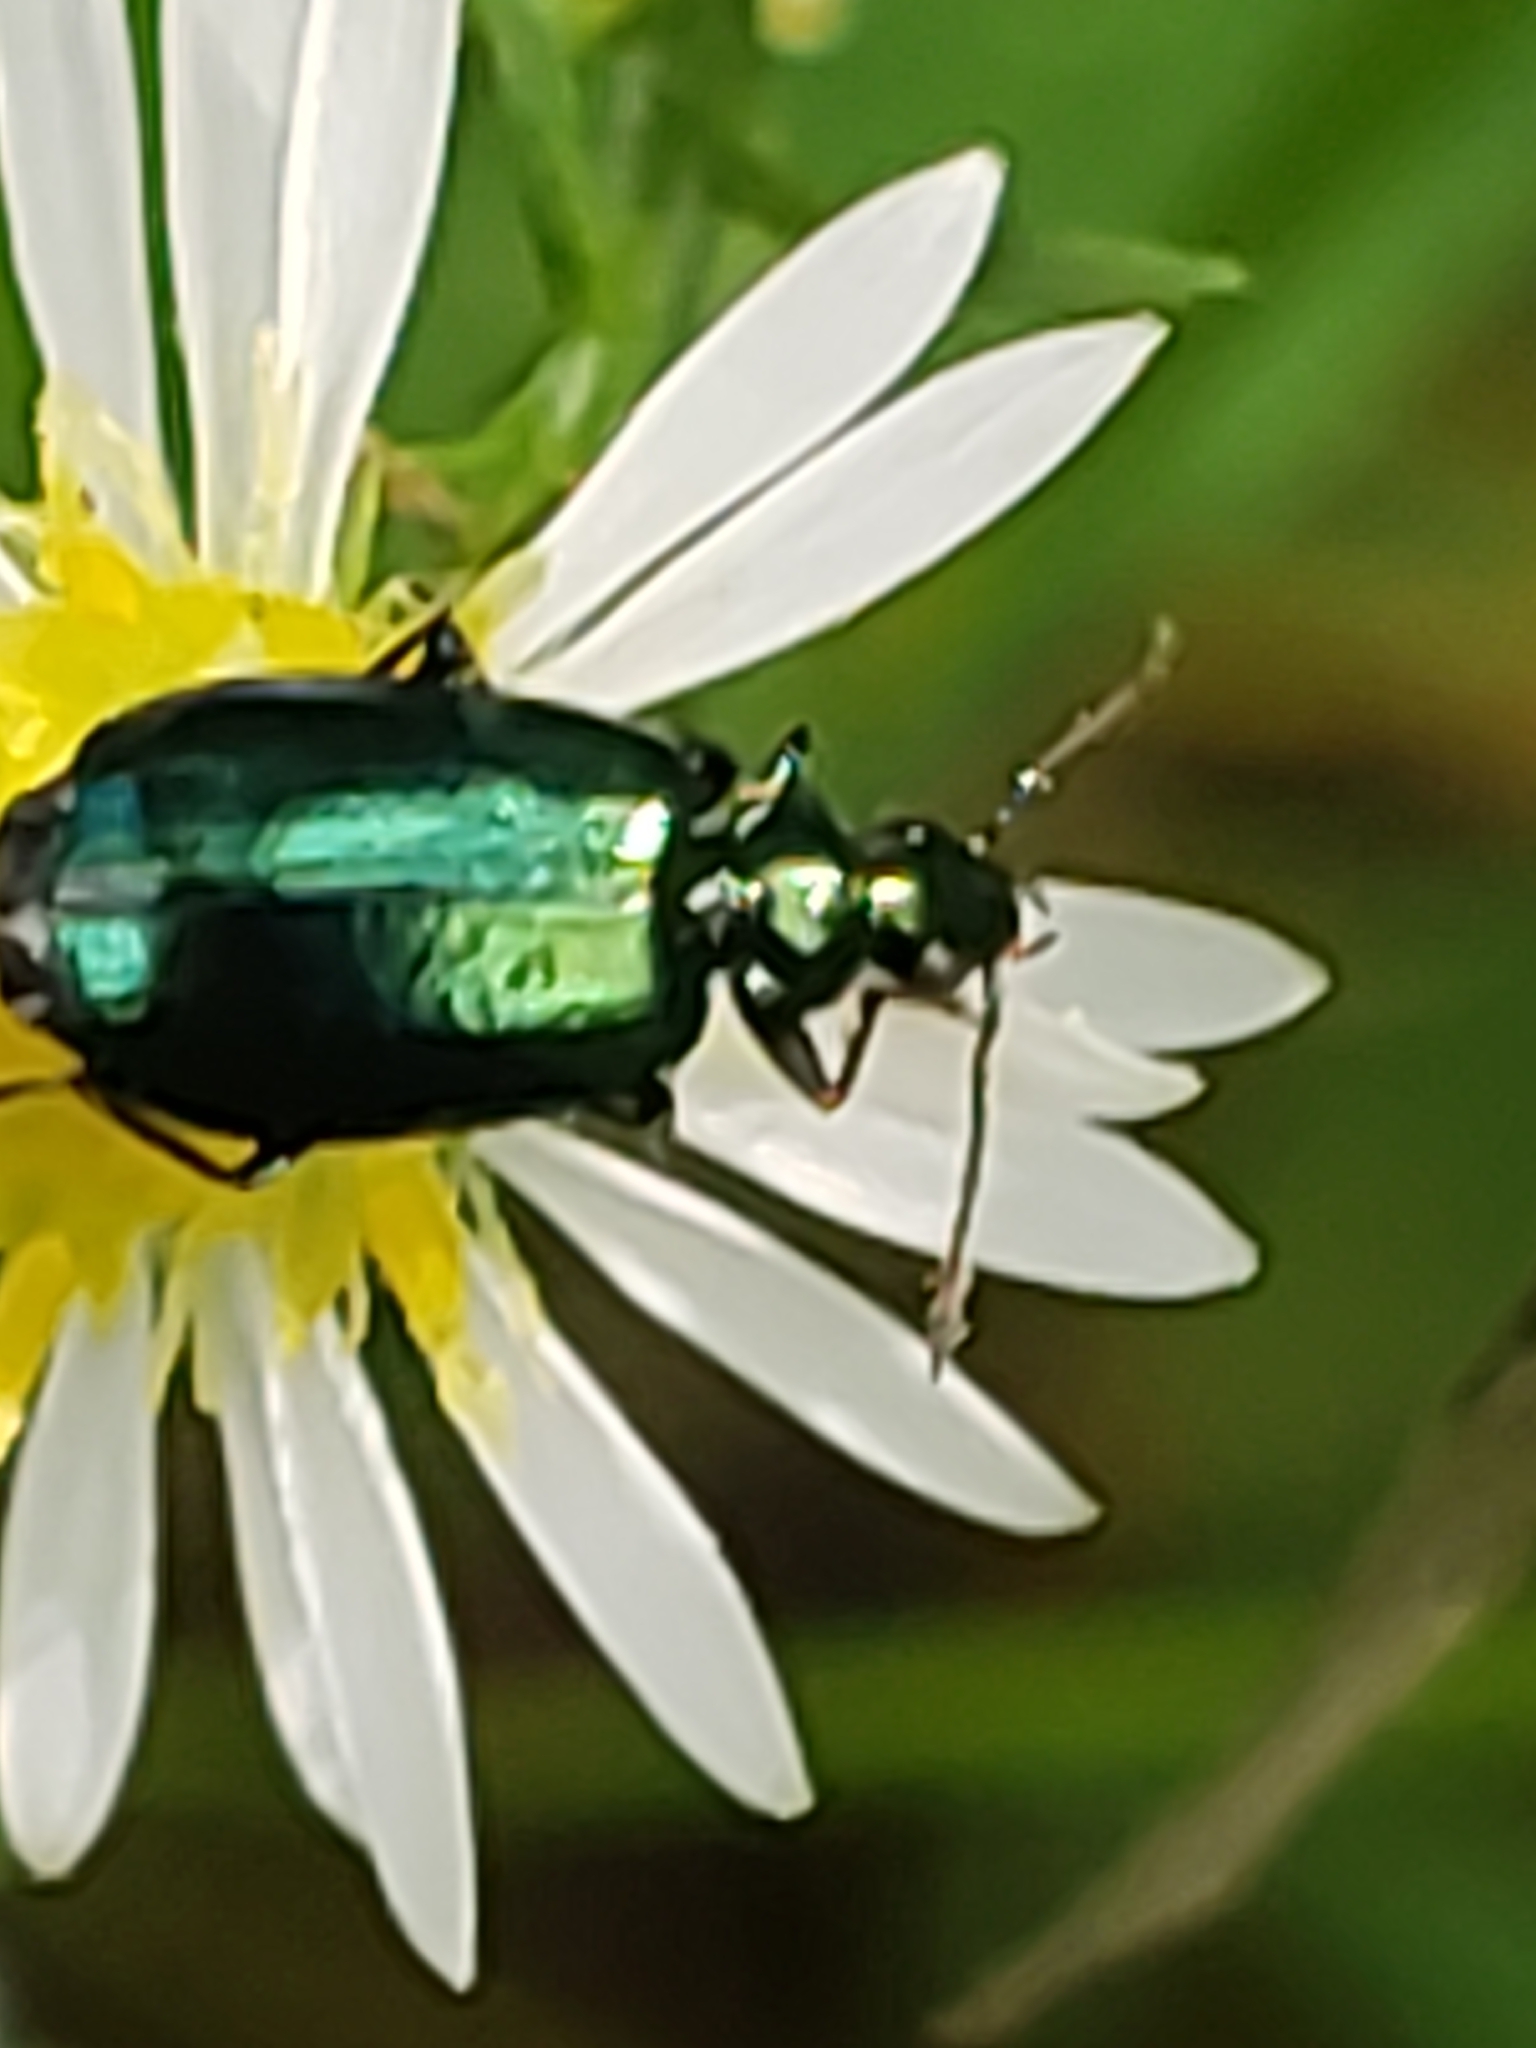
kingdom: Animalia
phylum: Arthropoda
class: Insecta
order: Coleoptera
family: Carabidae
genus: Lebia
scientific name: Lebia viridis
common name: Flower lebia beetle
